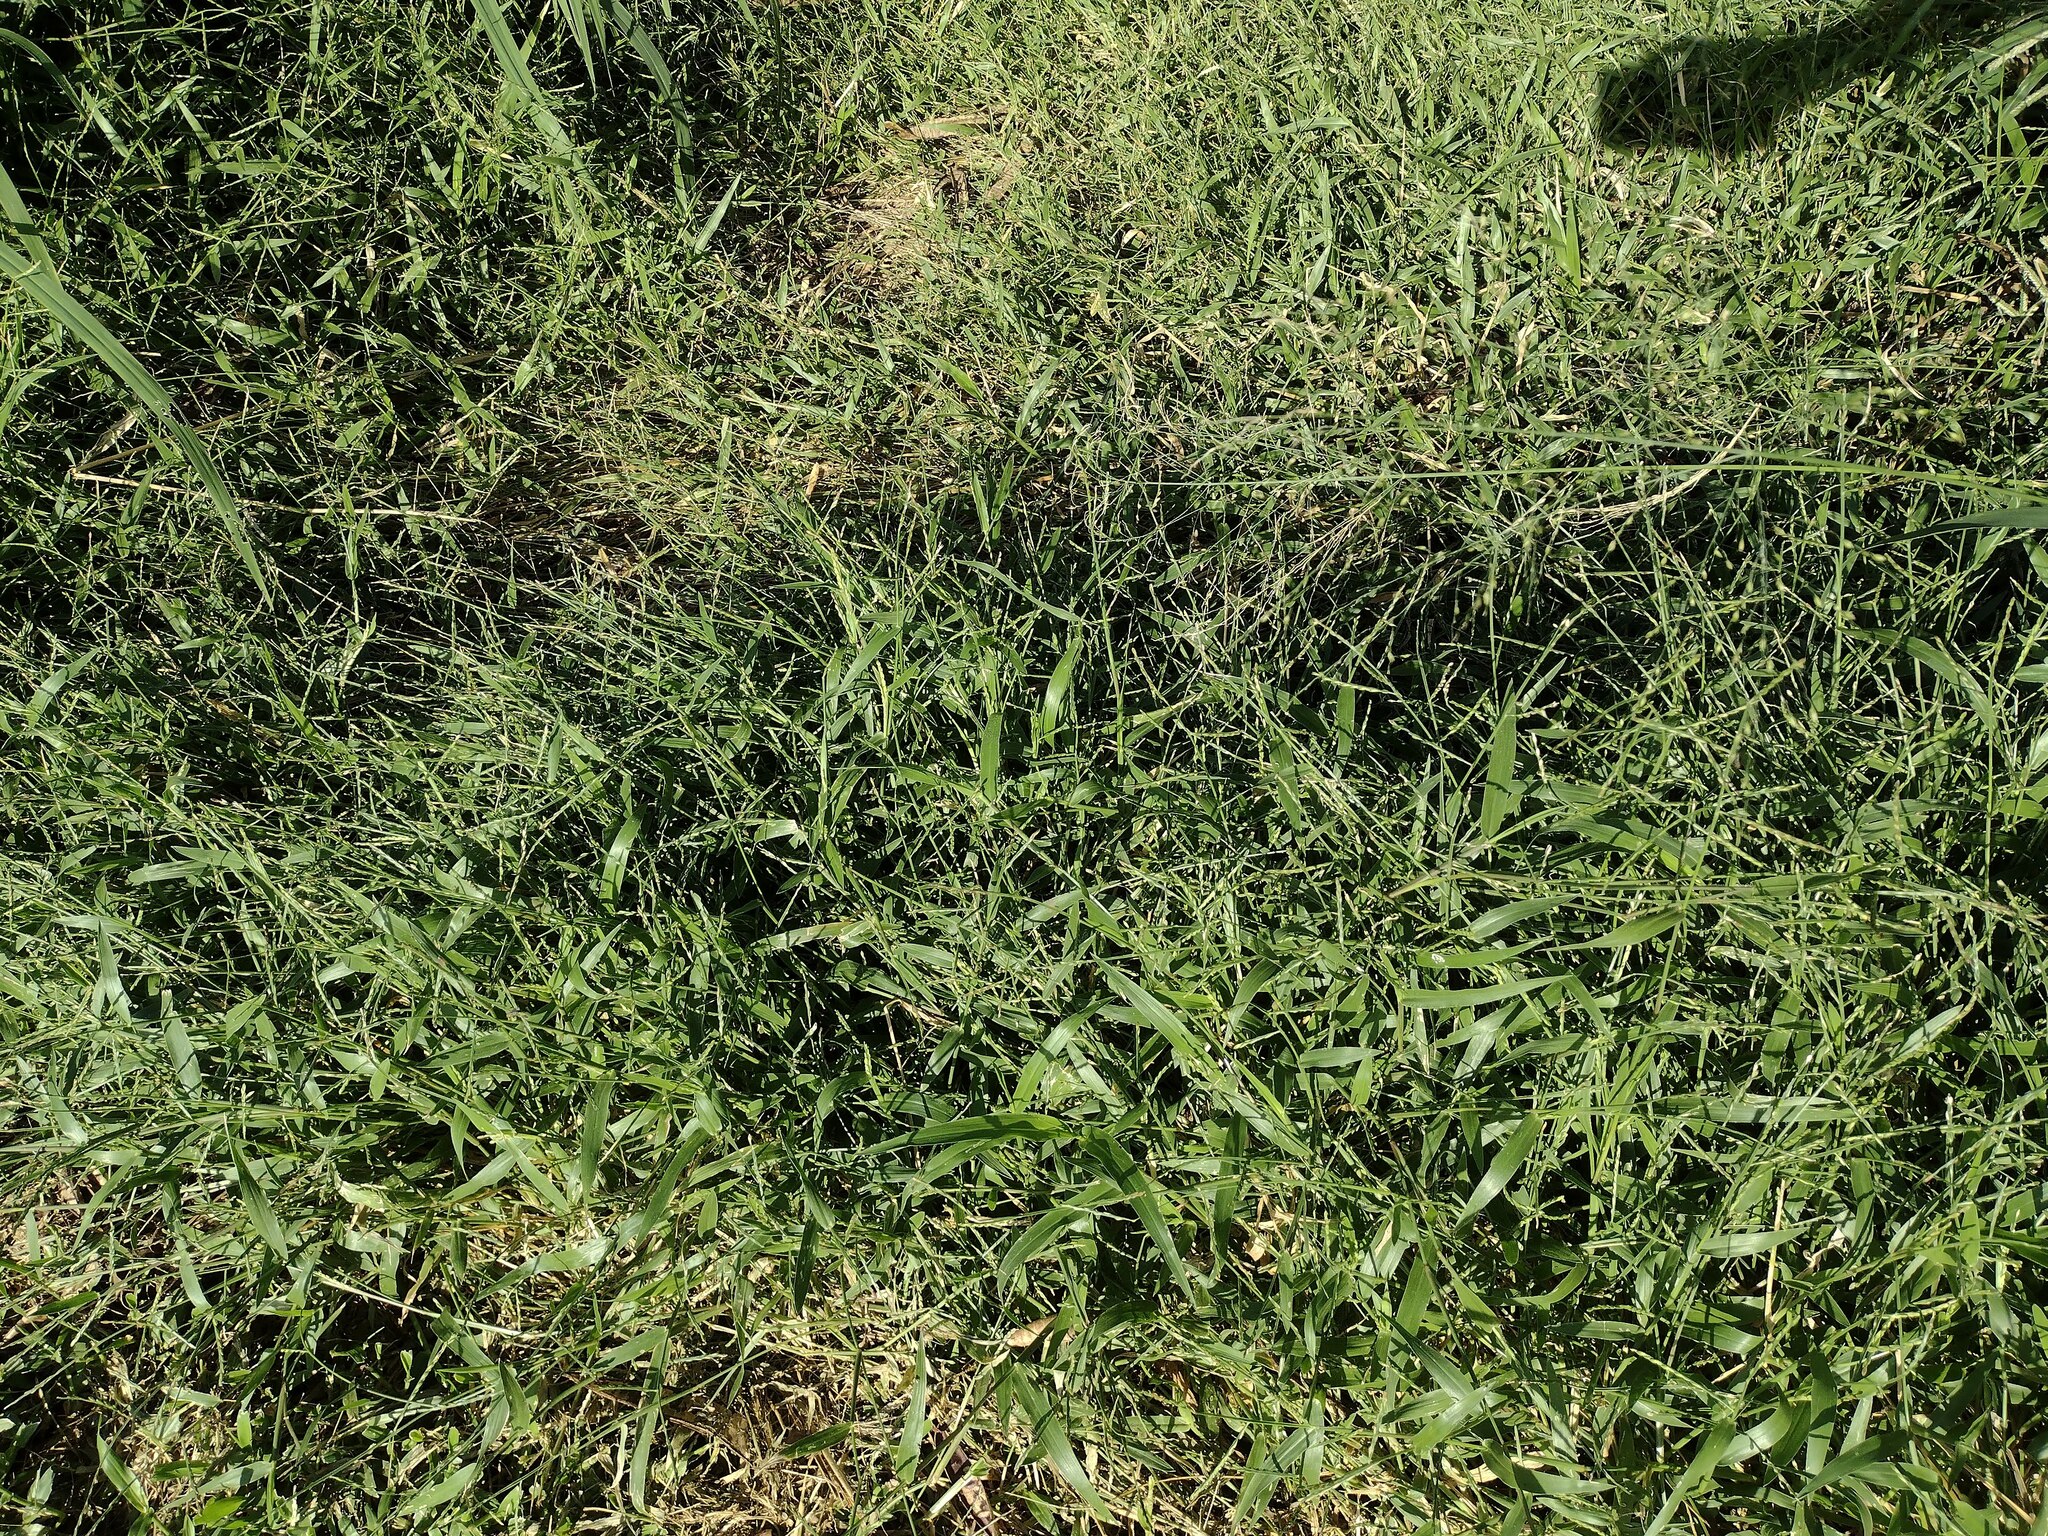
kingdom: Plantae
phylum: Tracheophyta
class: Liliopsida
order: Poales
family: Poaceae
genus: Urochloa
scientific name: Urochloa distachyos
